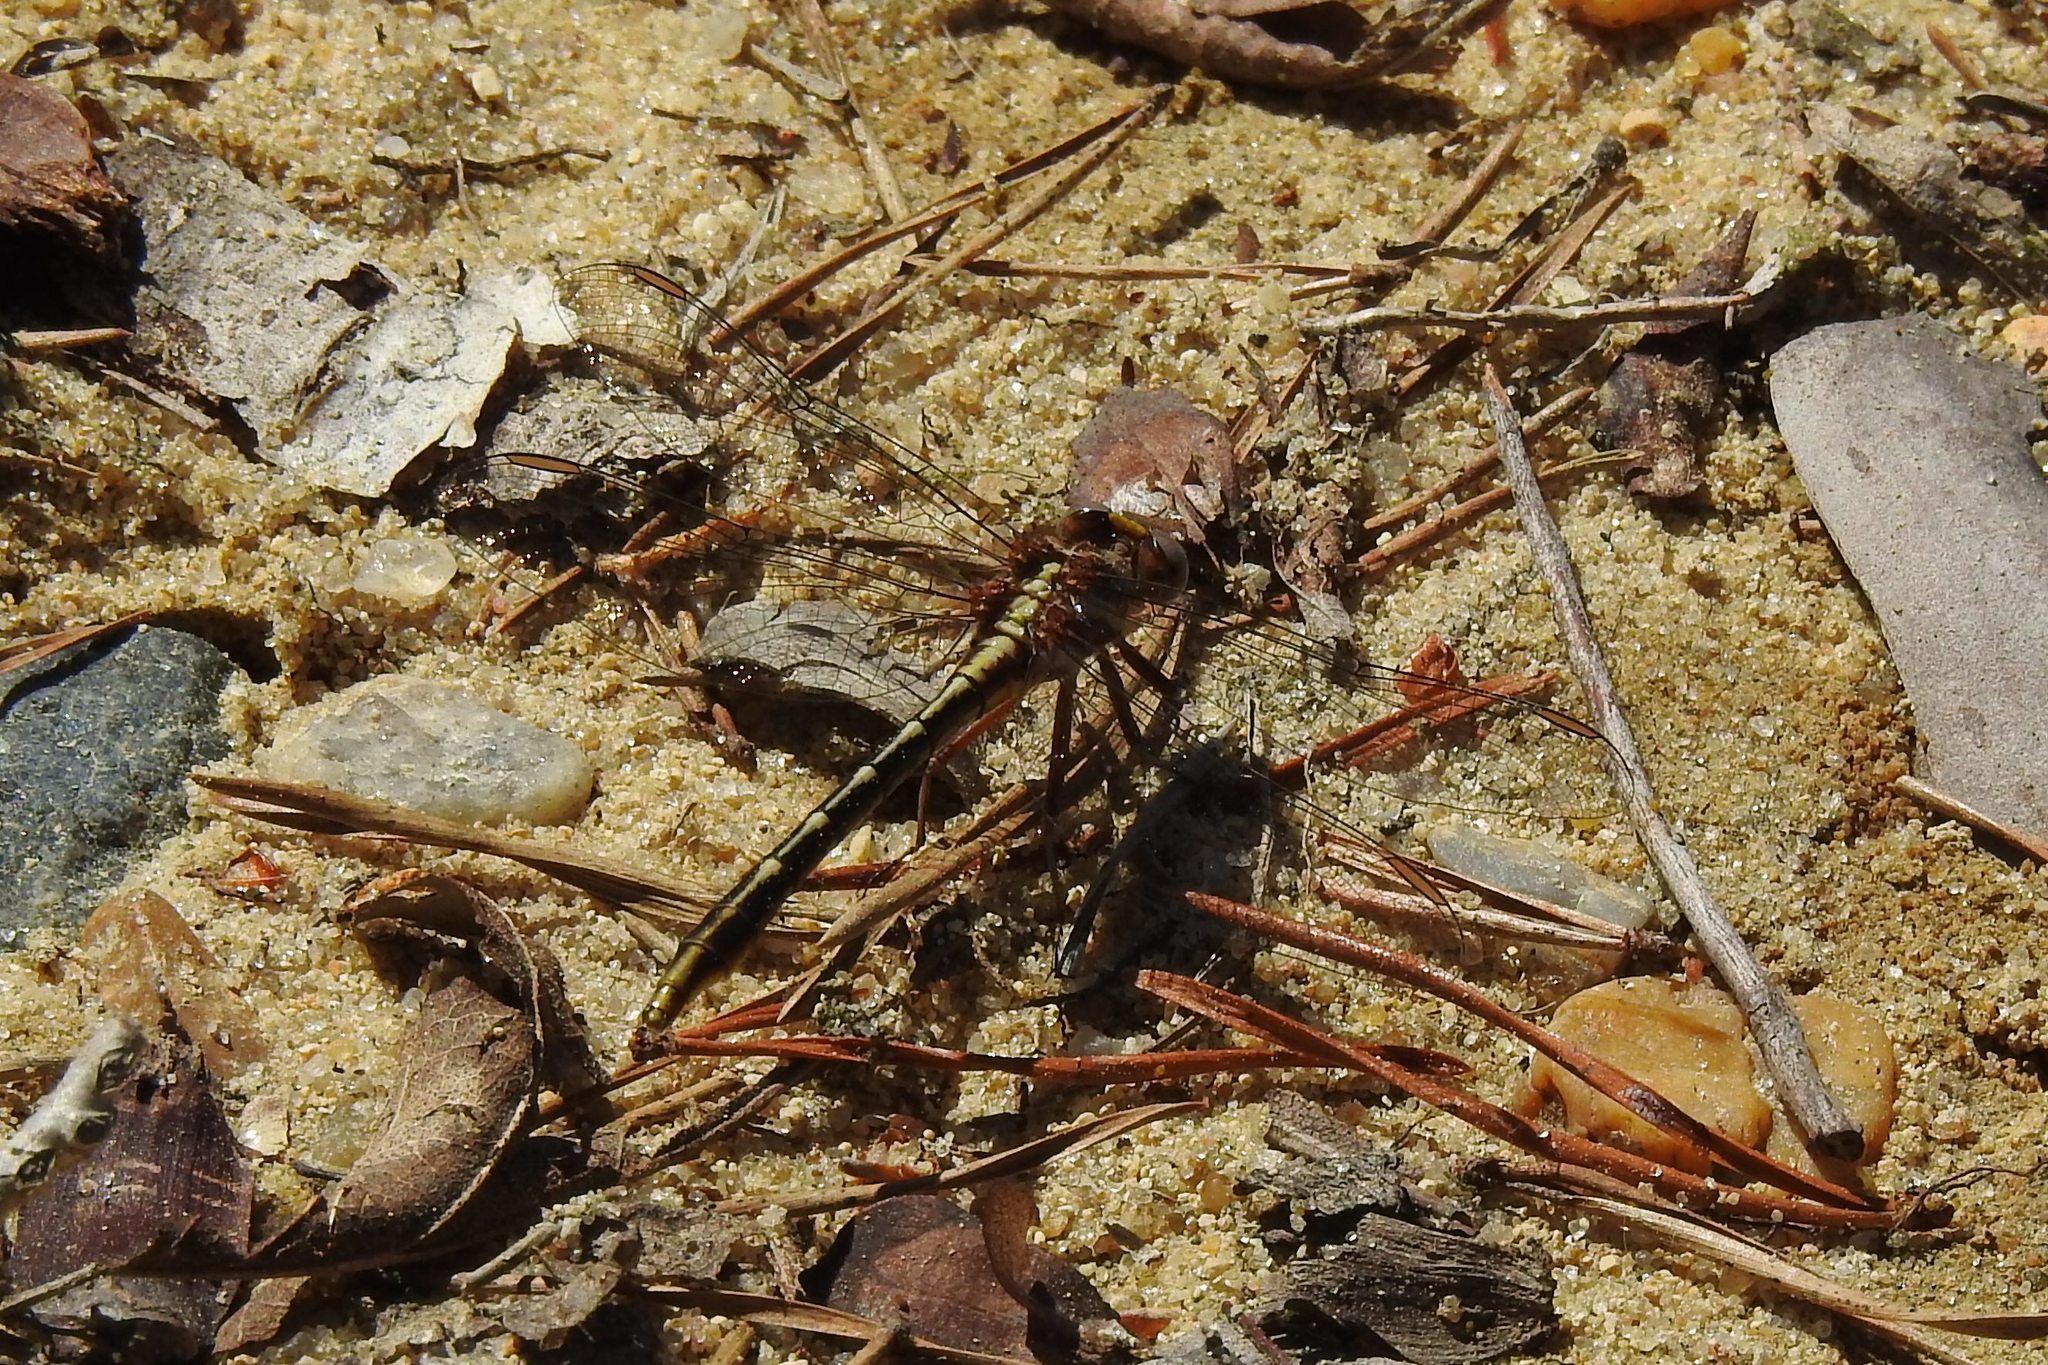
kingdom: Animalia
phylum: Arthropoda
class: Insecta
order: Odonata
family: Gomphidae
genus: Phanogomphus
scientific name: Phanogomphus
